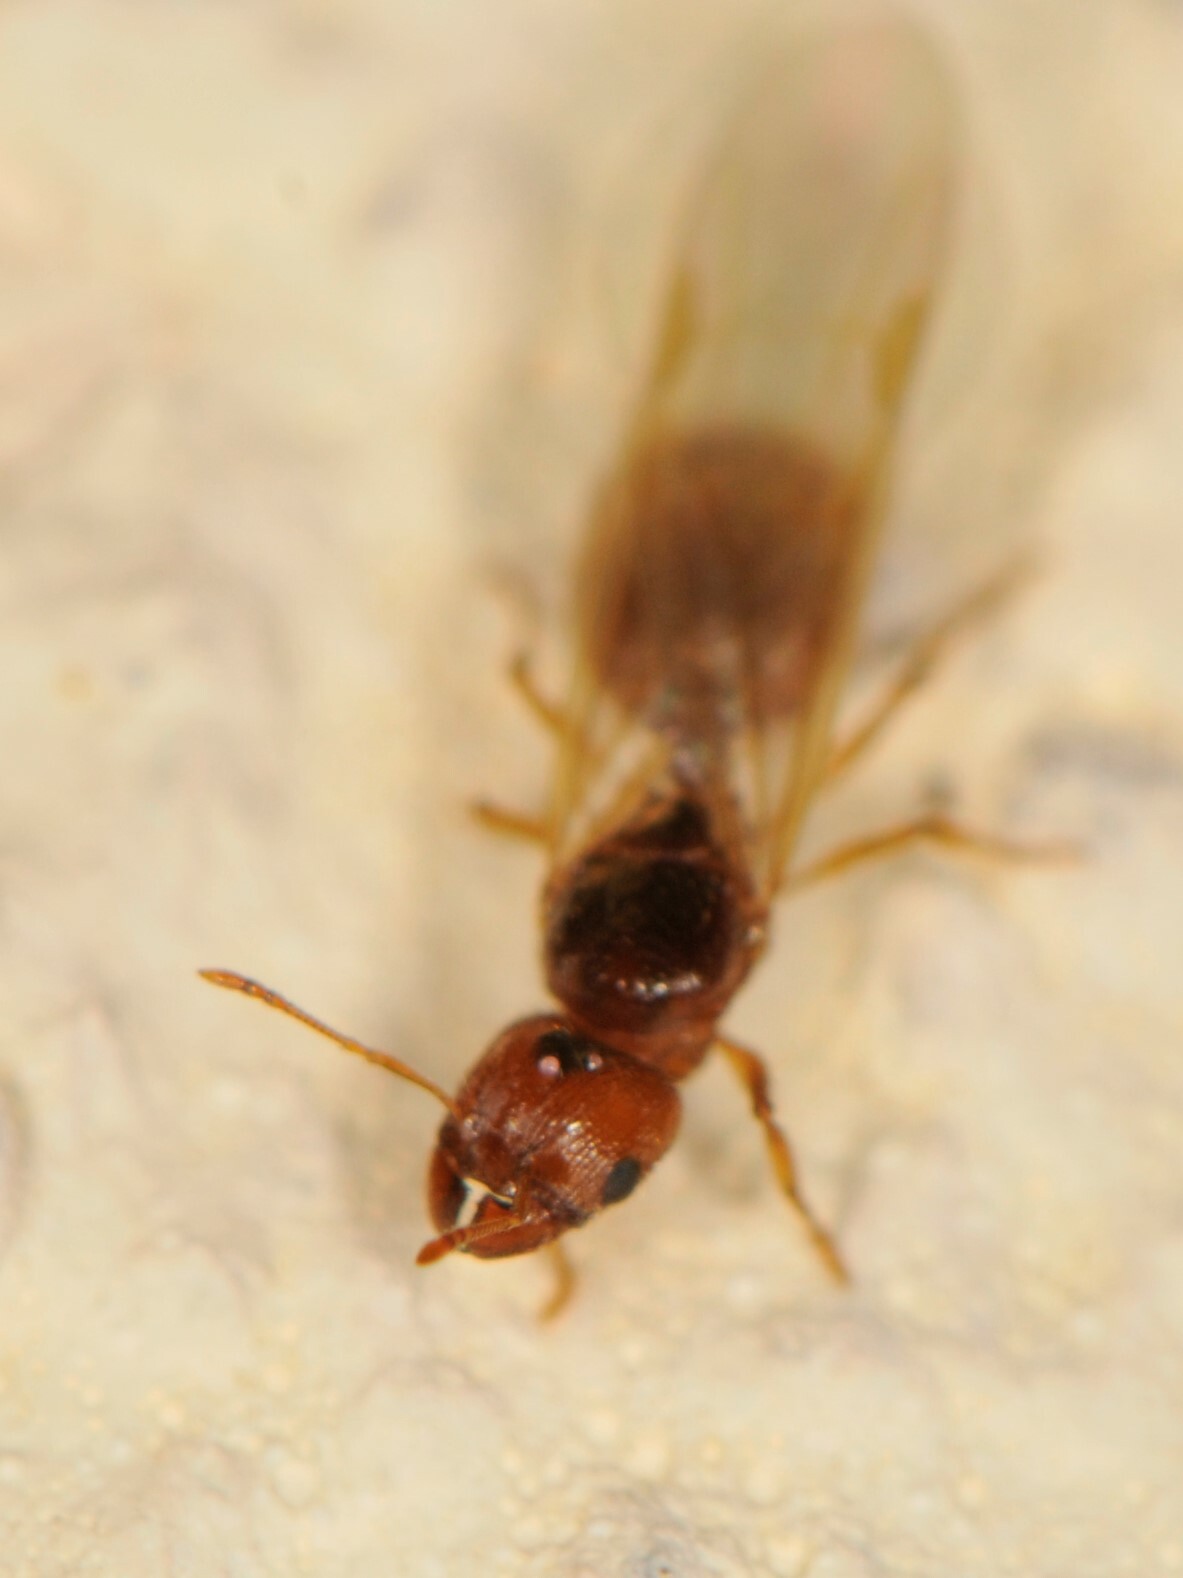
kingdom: Animalia
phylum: Arthropoda
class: Insecta
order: Hymenoptera
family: Formicidae
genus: Pheidole
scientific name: Pheidole
